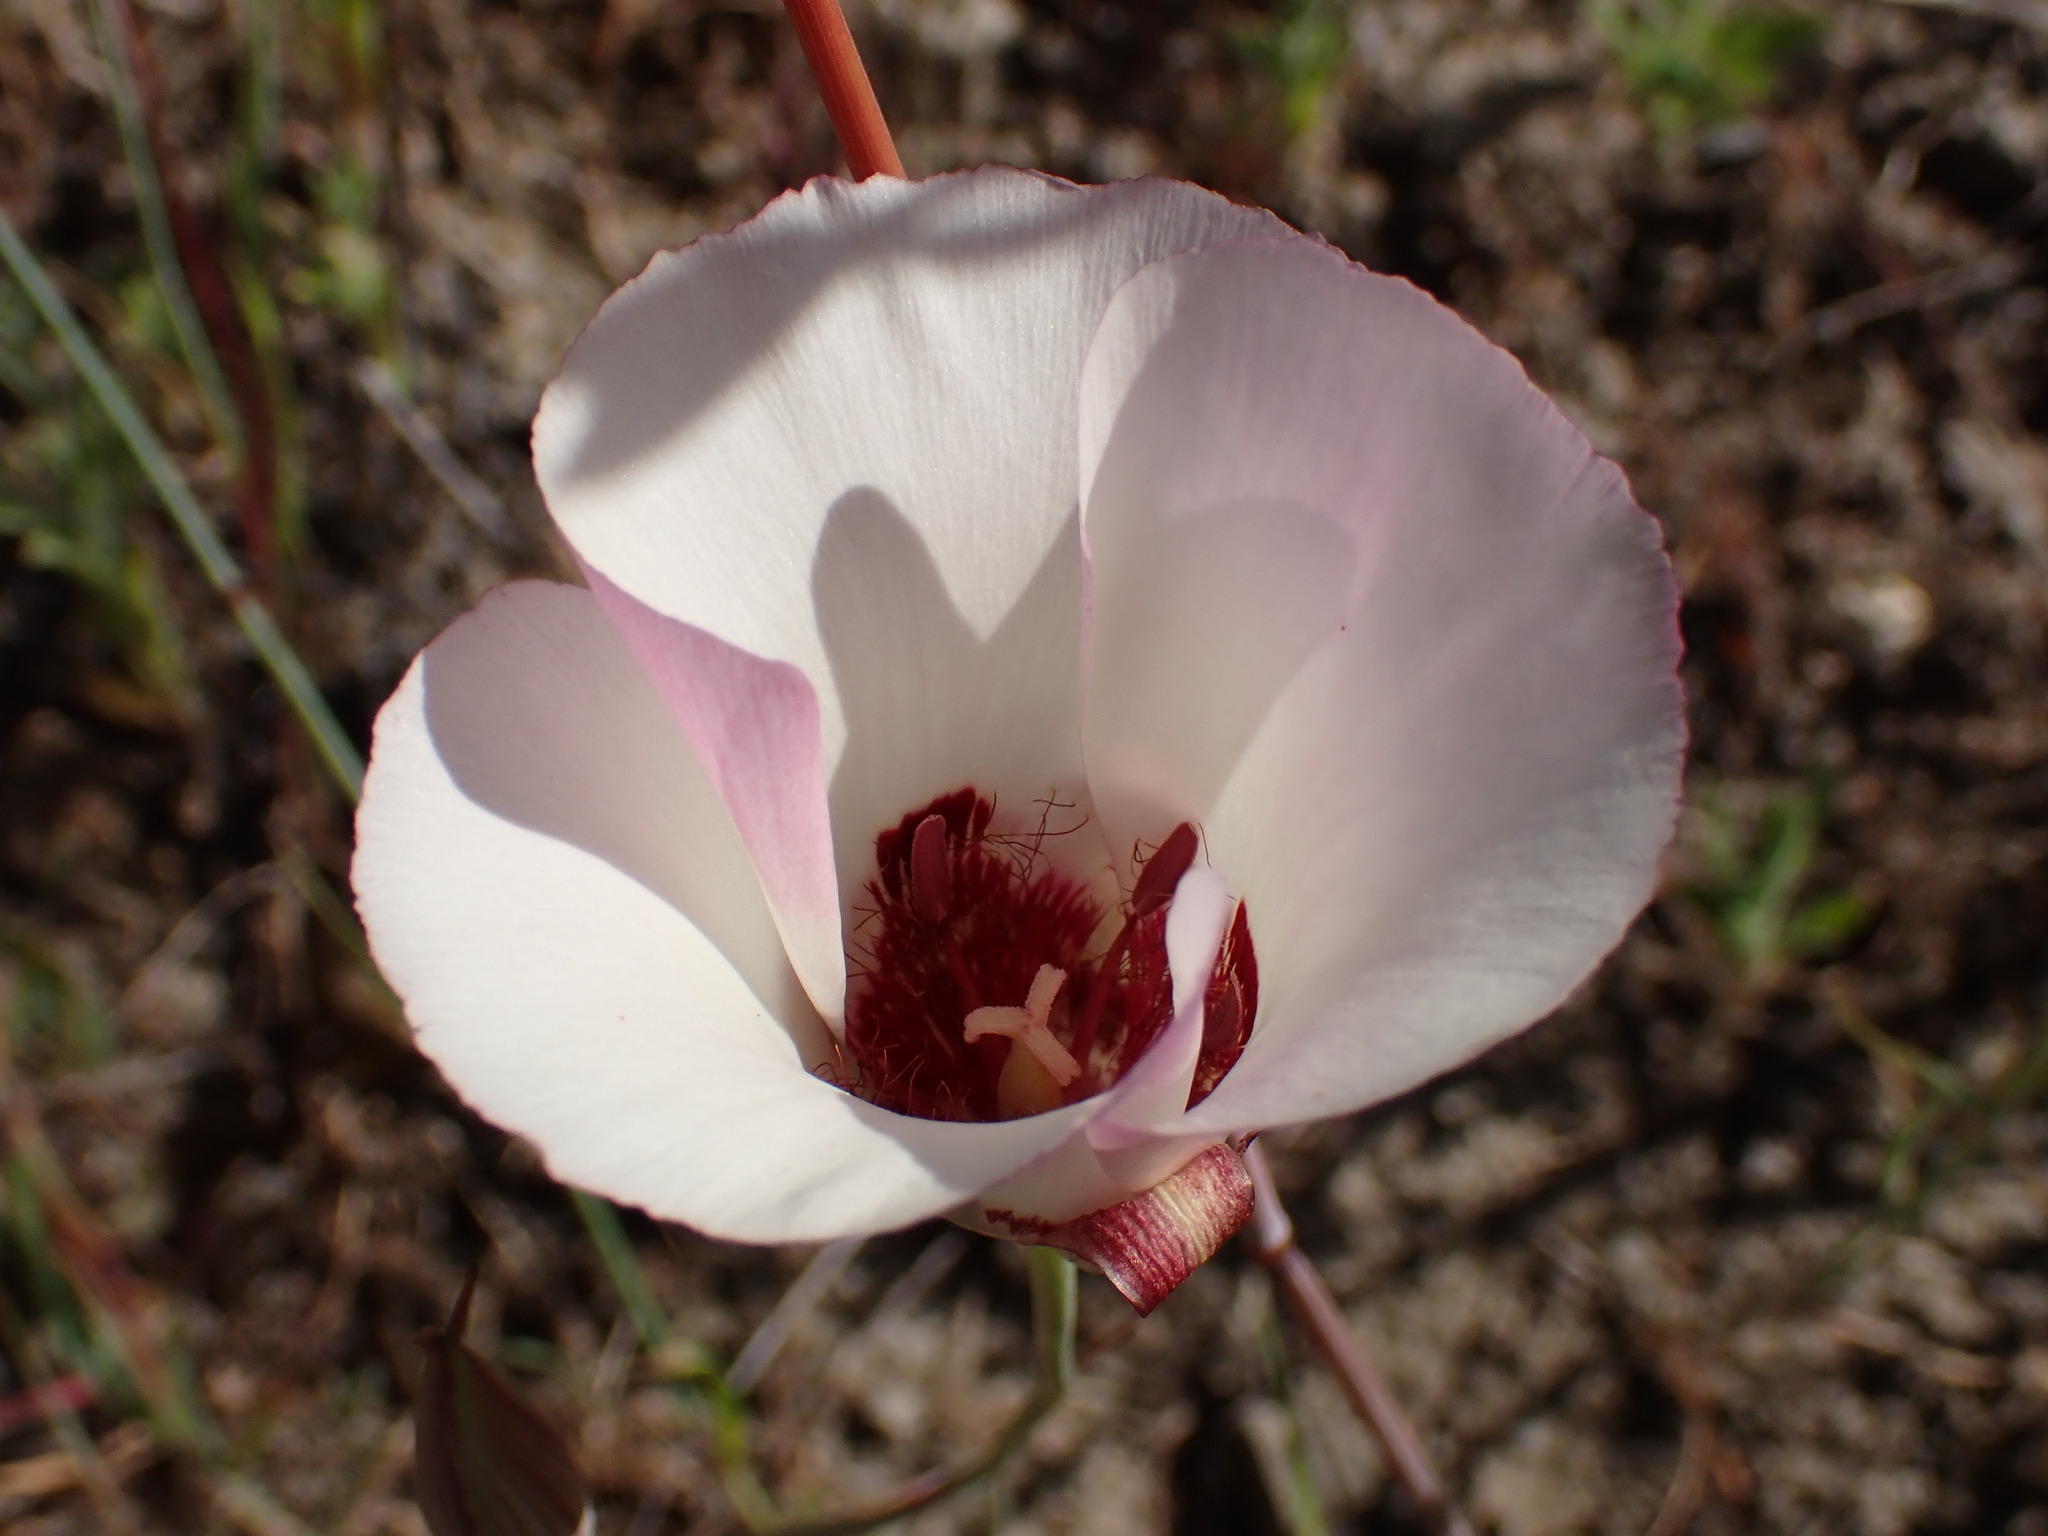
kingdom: Plantae
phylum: Tracheophyta
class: Liliopsida
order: Liliales
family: Liliaceae
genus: Calochortus
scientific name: Calochortus simulans
